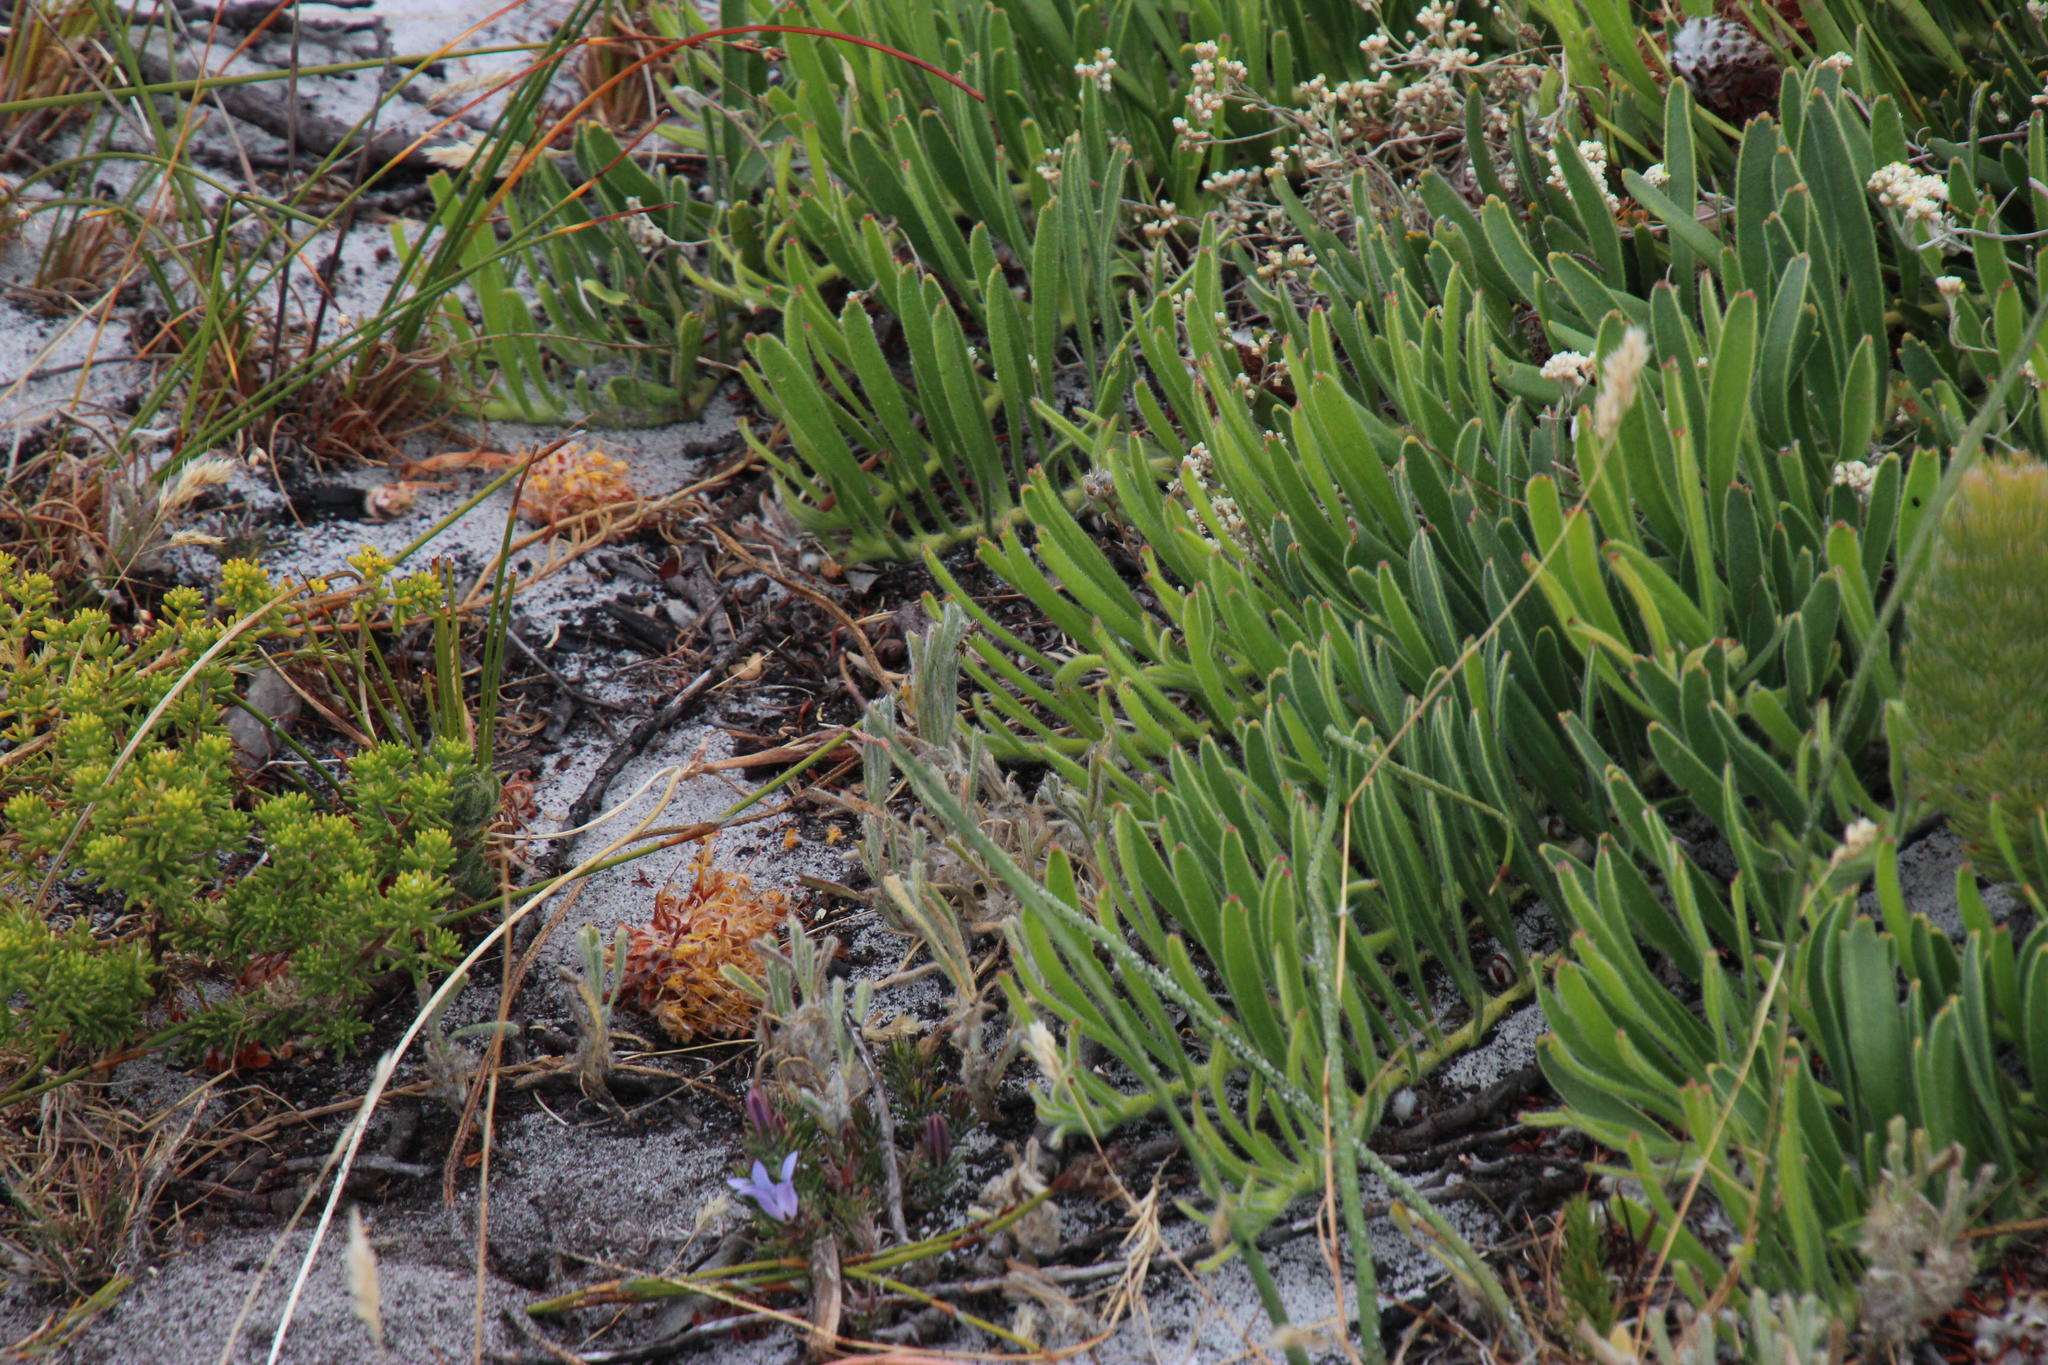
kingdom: Plantae
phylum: Tracheophyta
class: Magnoliopsida
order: Proteales
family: Proteaceae
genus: Leucospermum
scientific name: Leucospermum hypophyllocarpodendron
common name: Snakestem pincushion
